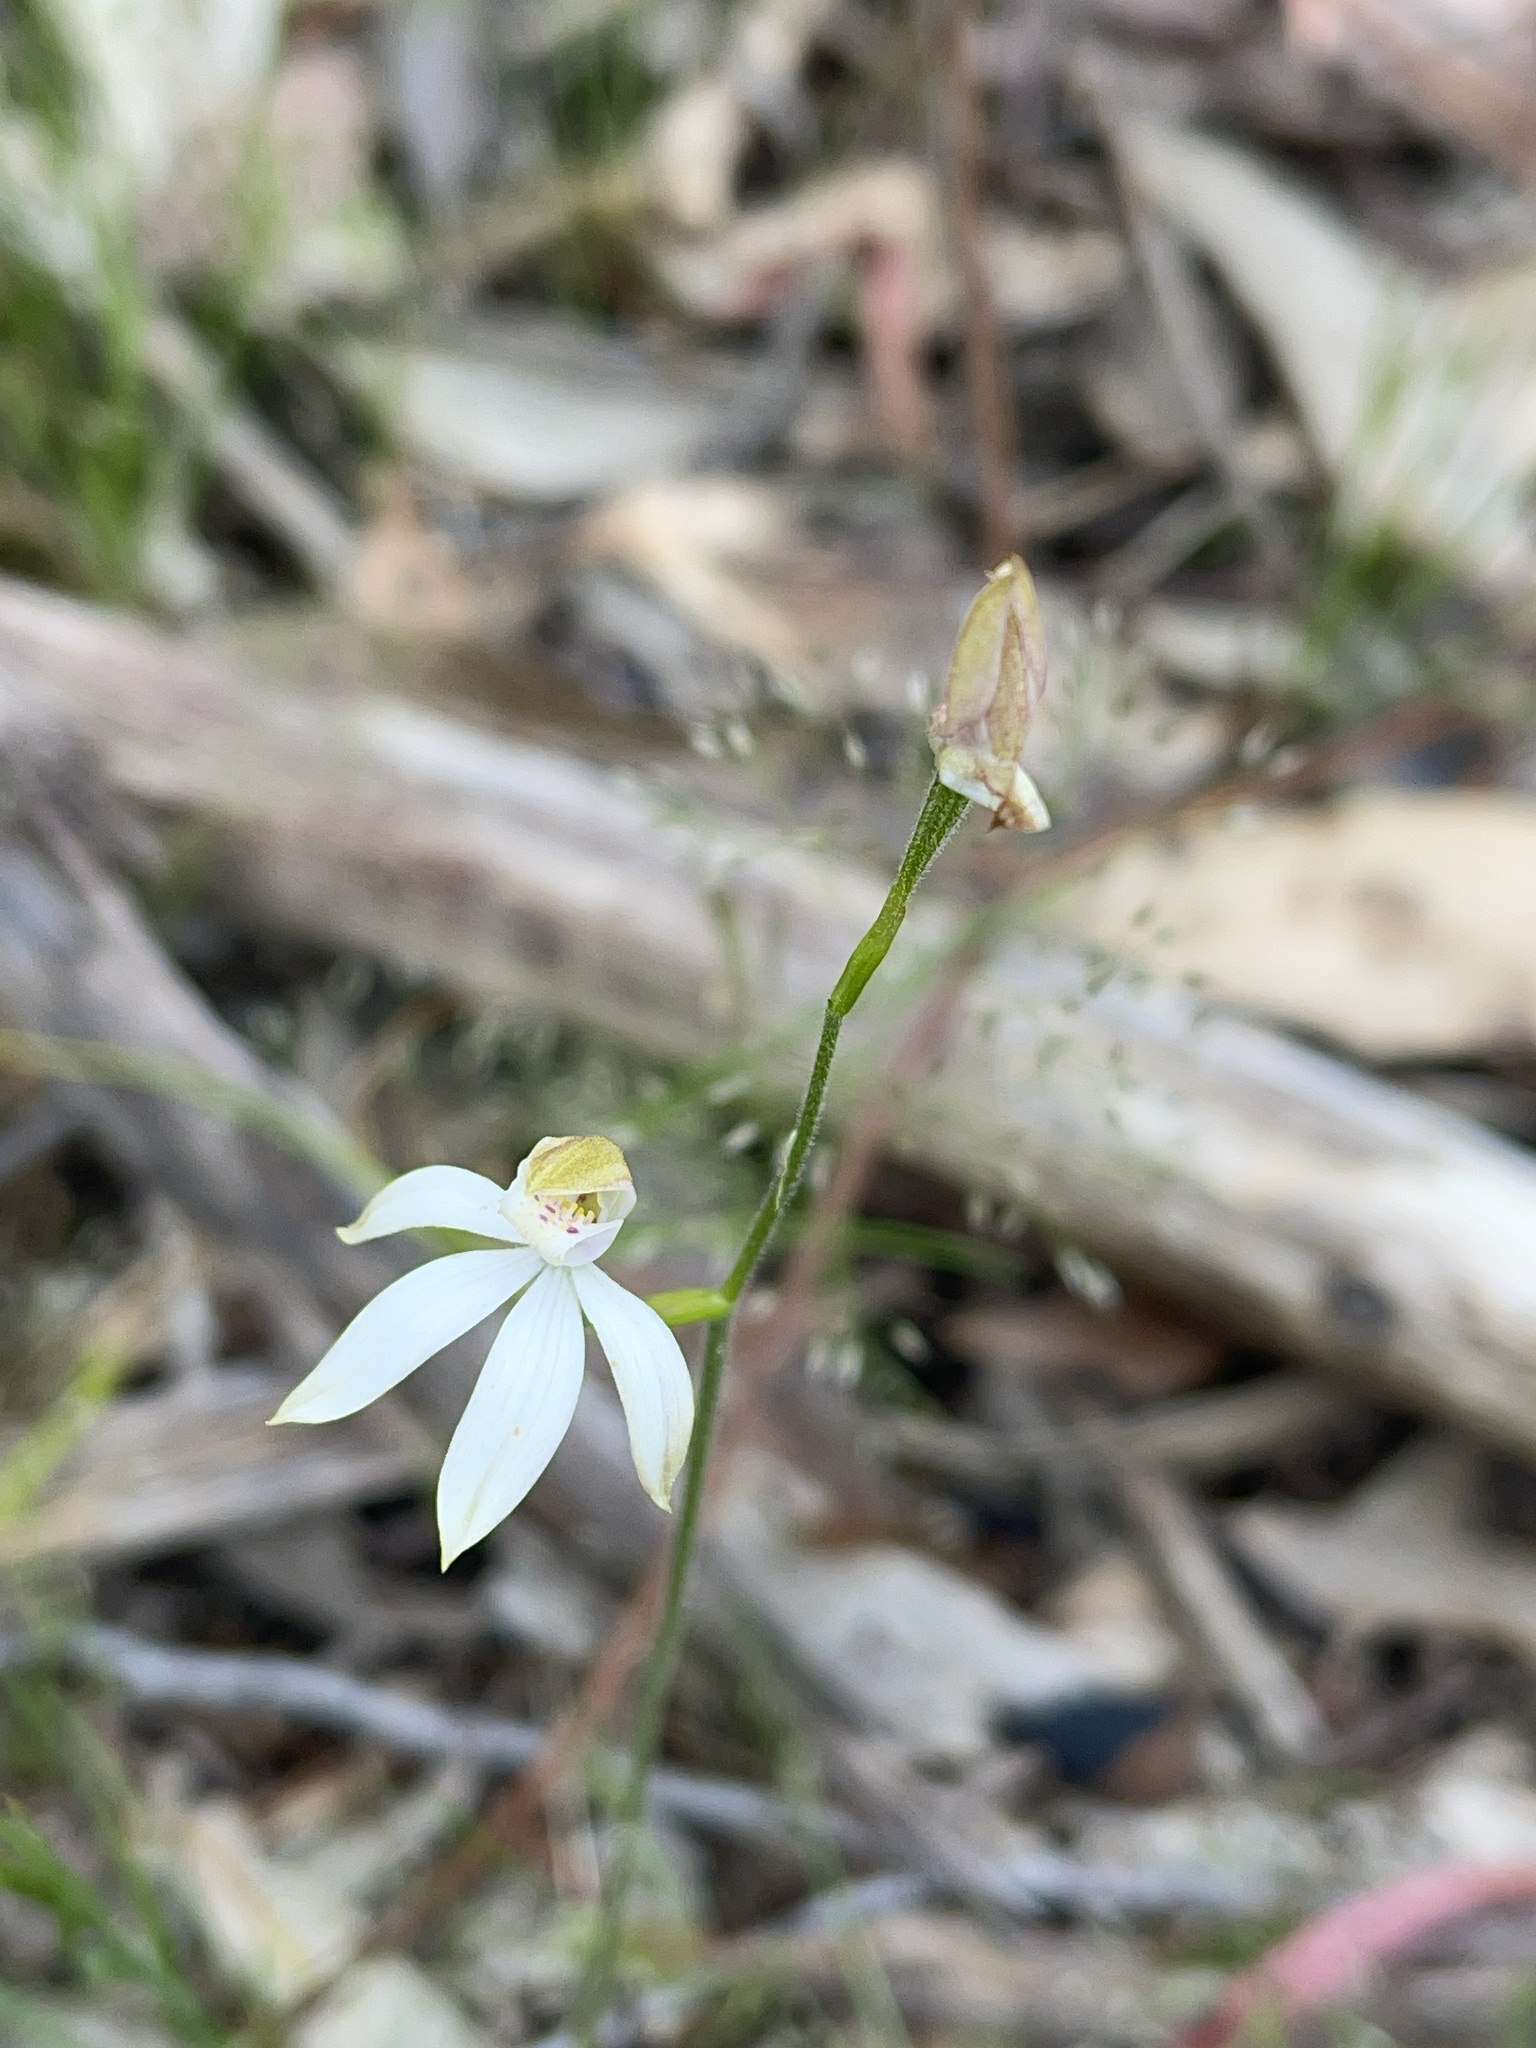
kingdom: Plantae
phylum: Tracheophyta
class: Liliopsida
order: Asparagales
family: Orchidaceae
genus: Caladenia
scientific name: Caladenia moschata
